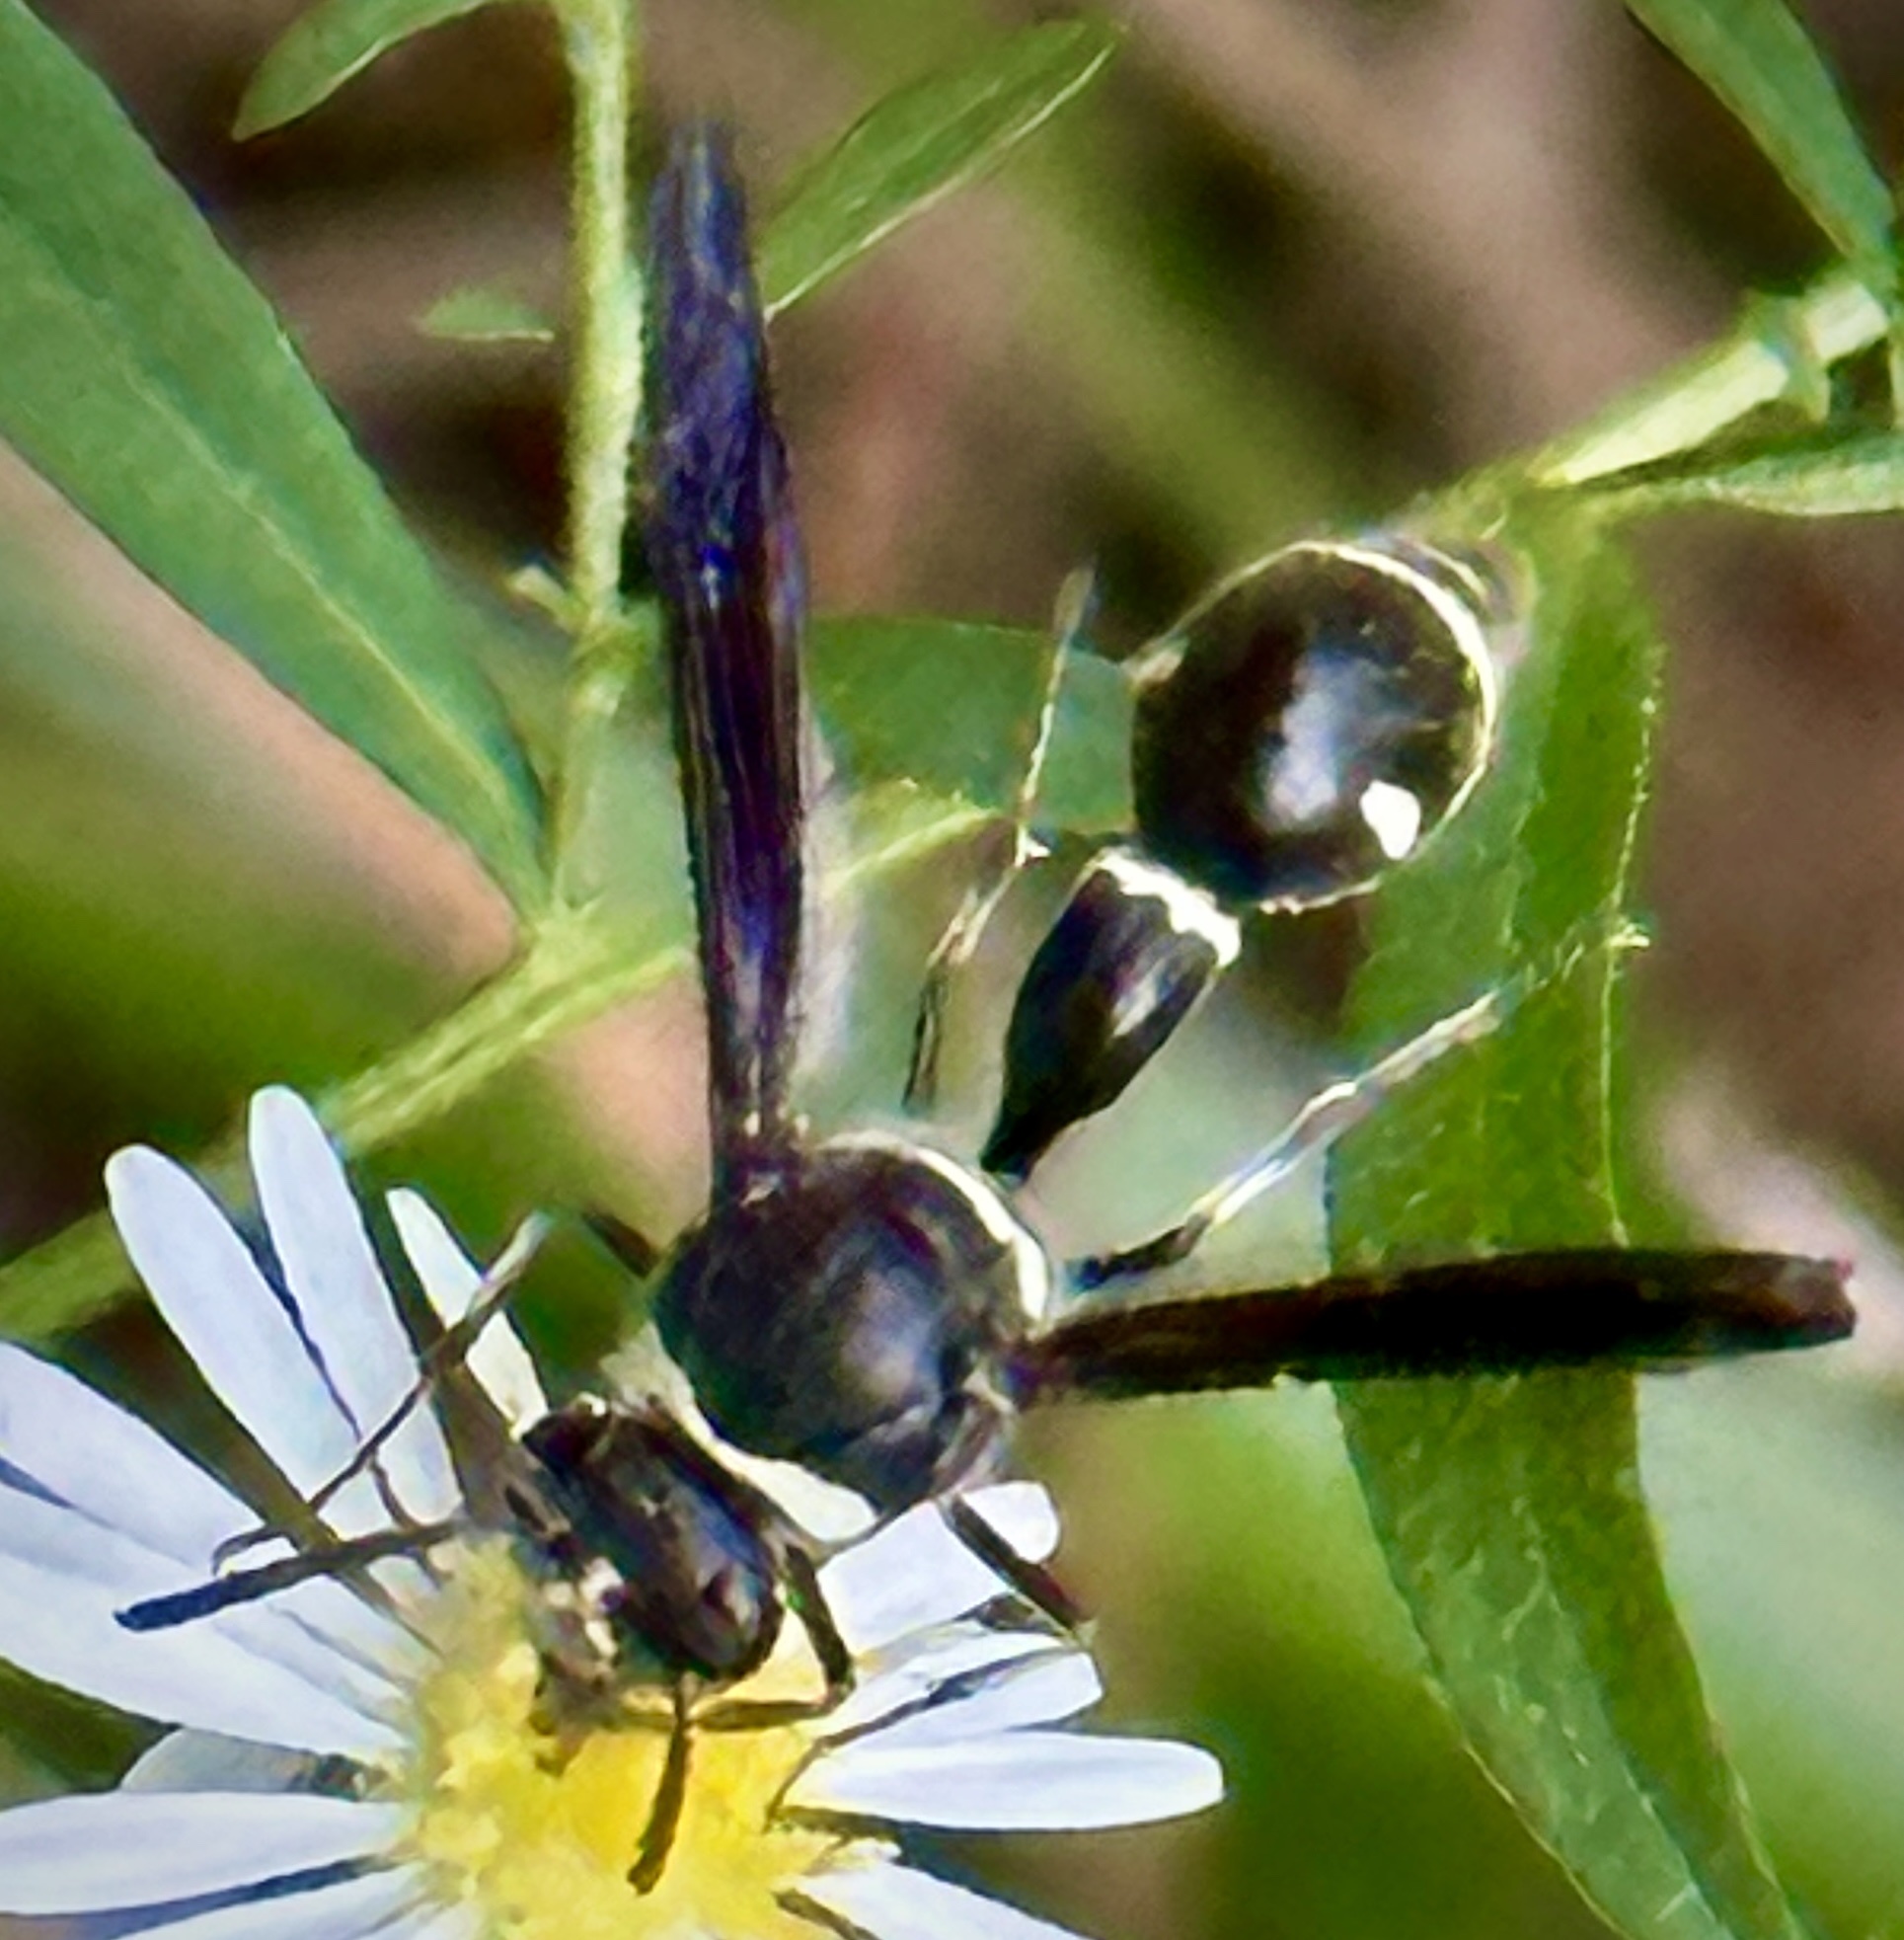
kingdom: Animalia
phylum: Arthropoda
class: Insecta
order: Hymenoptera
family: Vespidae
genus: Eumenes
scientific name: Eumenes fraternus
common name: Fraternal potter wasp
